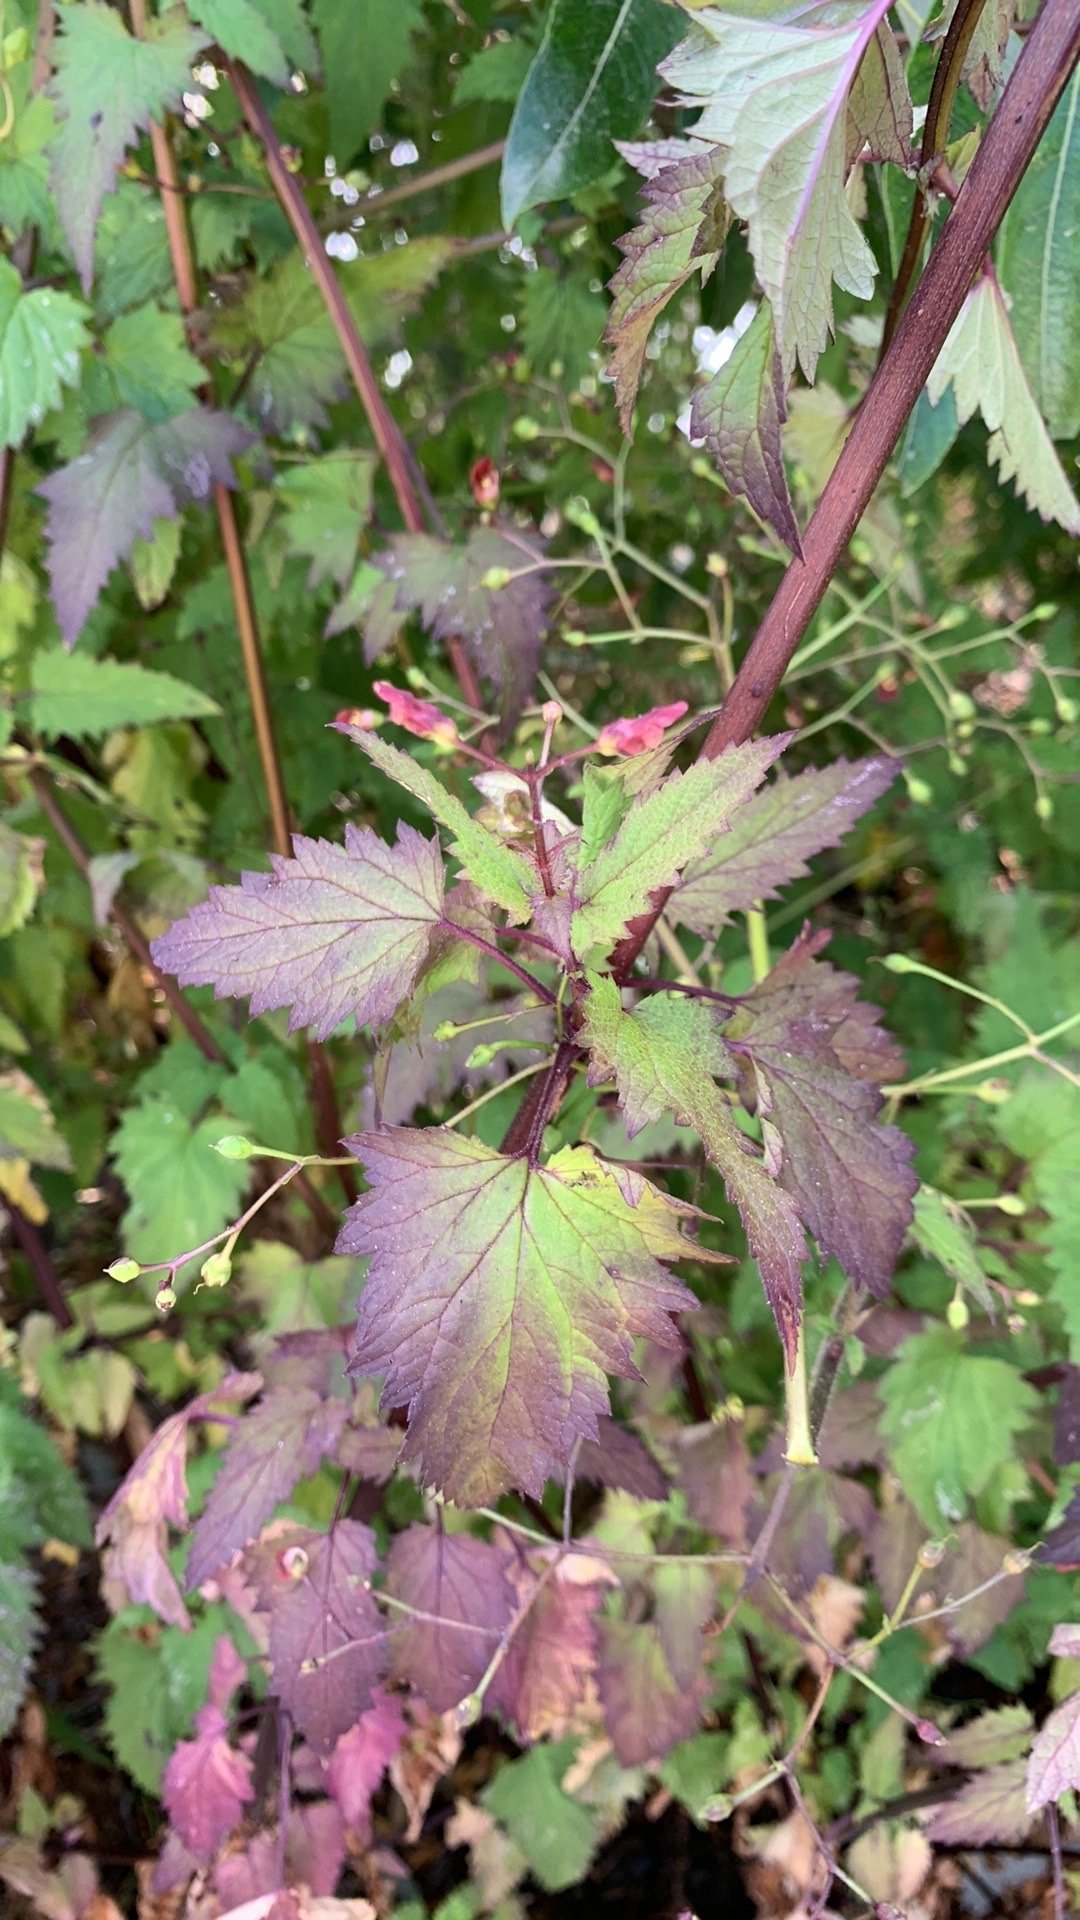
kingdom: Plantae
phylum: Tracheophyta
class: Magnoliopsida
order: Lamiales
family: Scrophulariaceae
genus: Scrophularia
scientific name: Scrophularia californica
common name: California figwort
